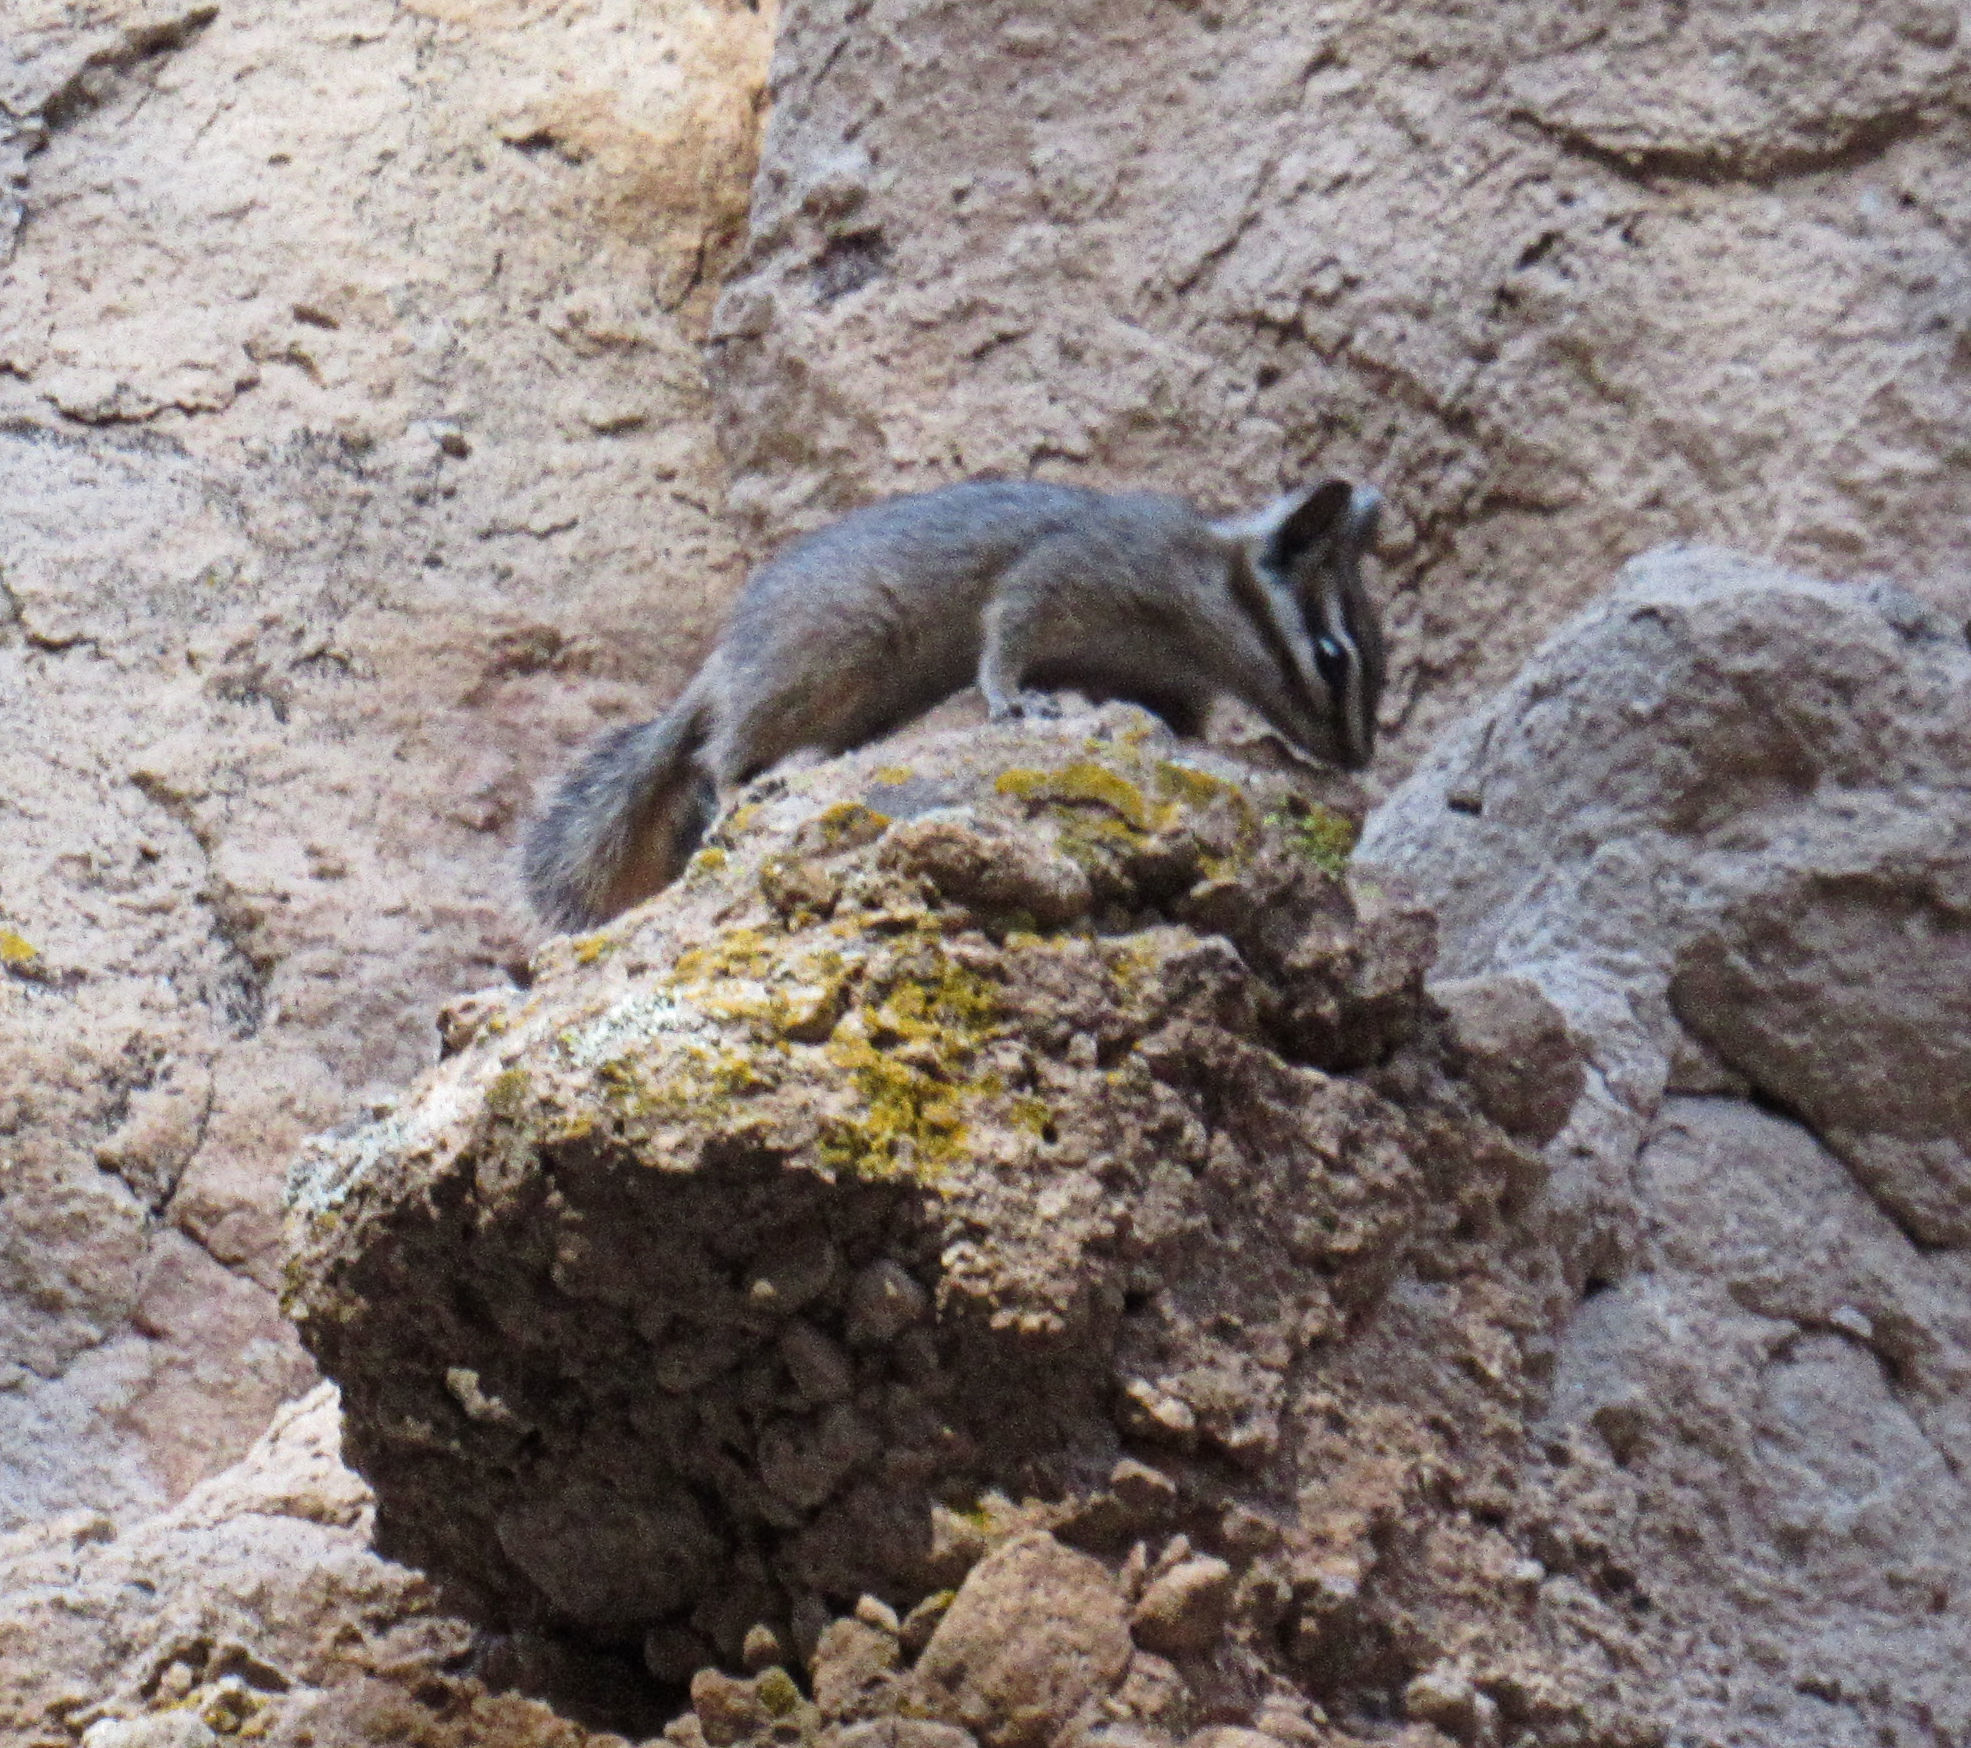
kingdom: Animalia
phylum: Chordata
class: Mammalia
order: Rodentia
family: Sciuridae
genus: Tamias
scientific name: Tamias dorsalis
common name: Cliff chipmunk
